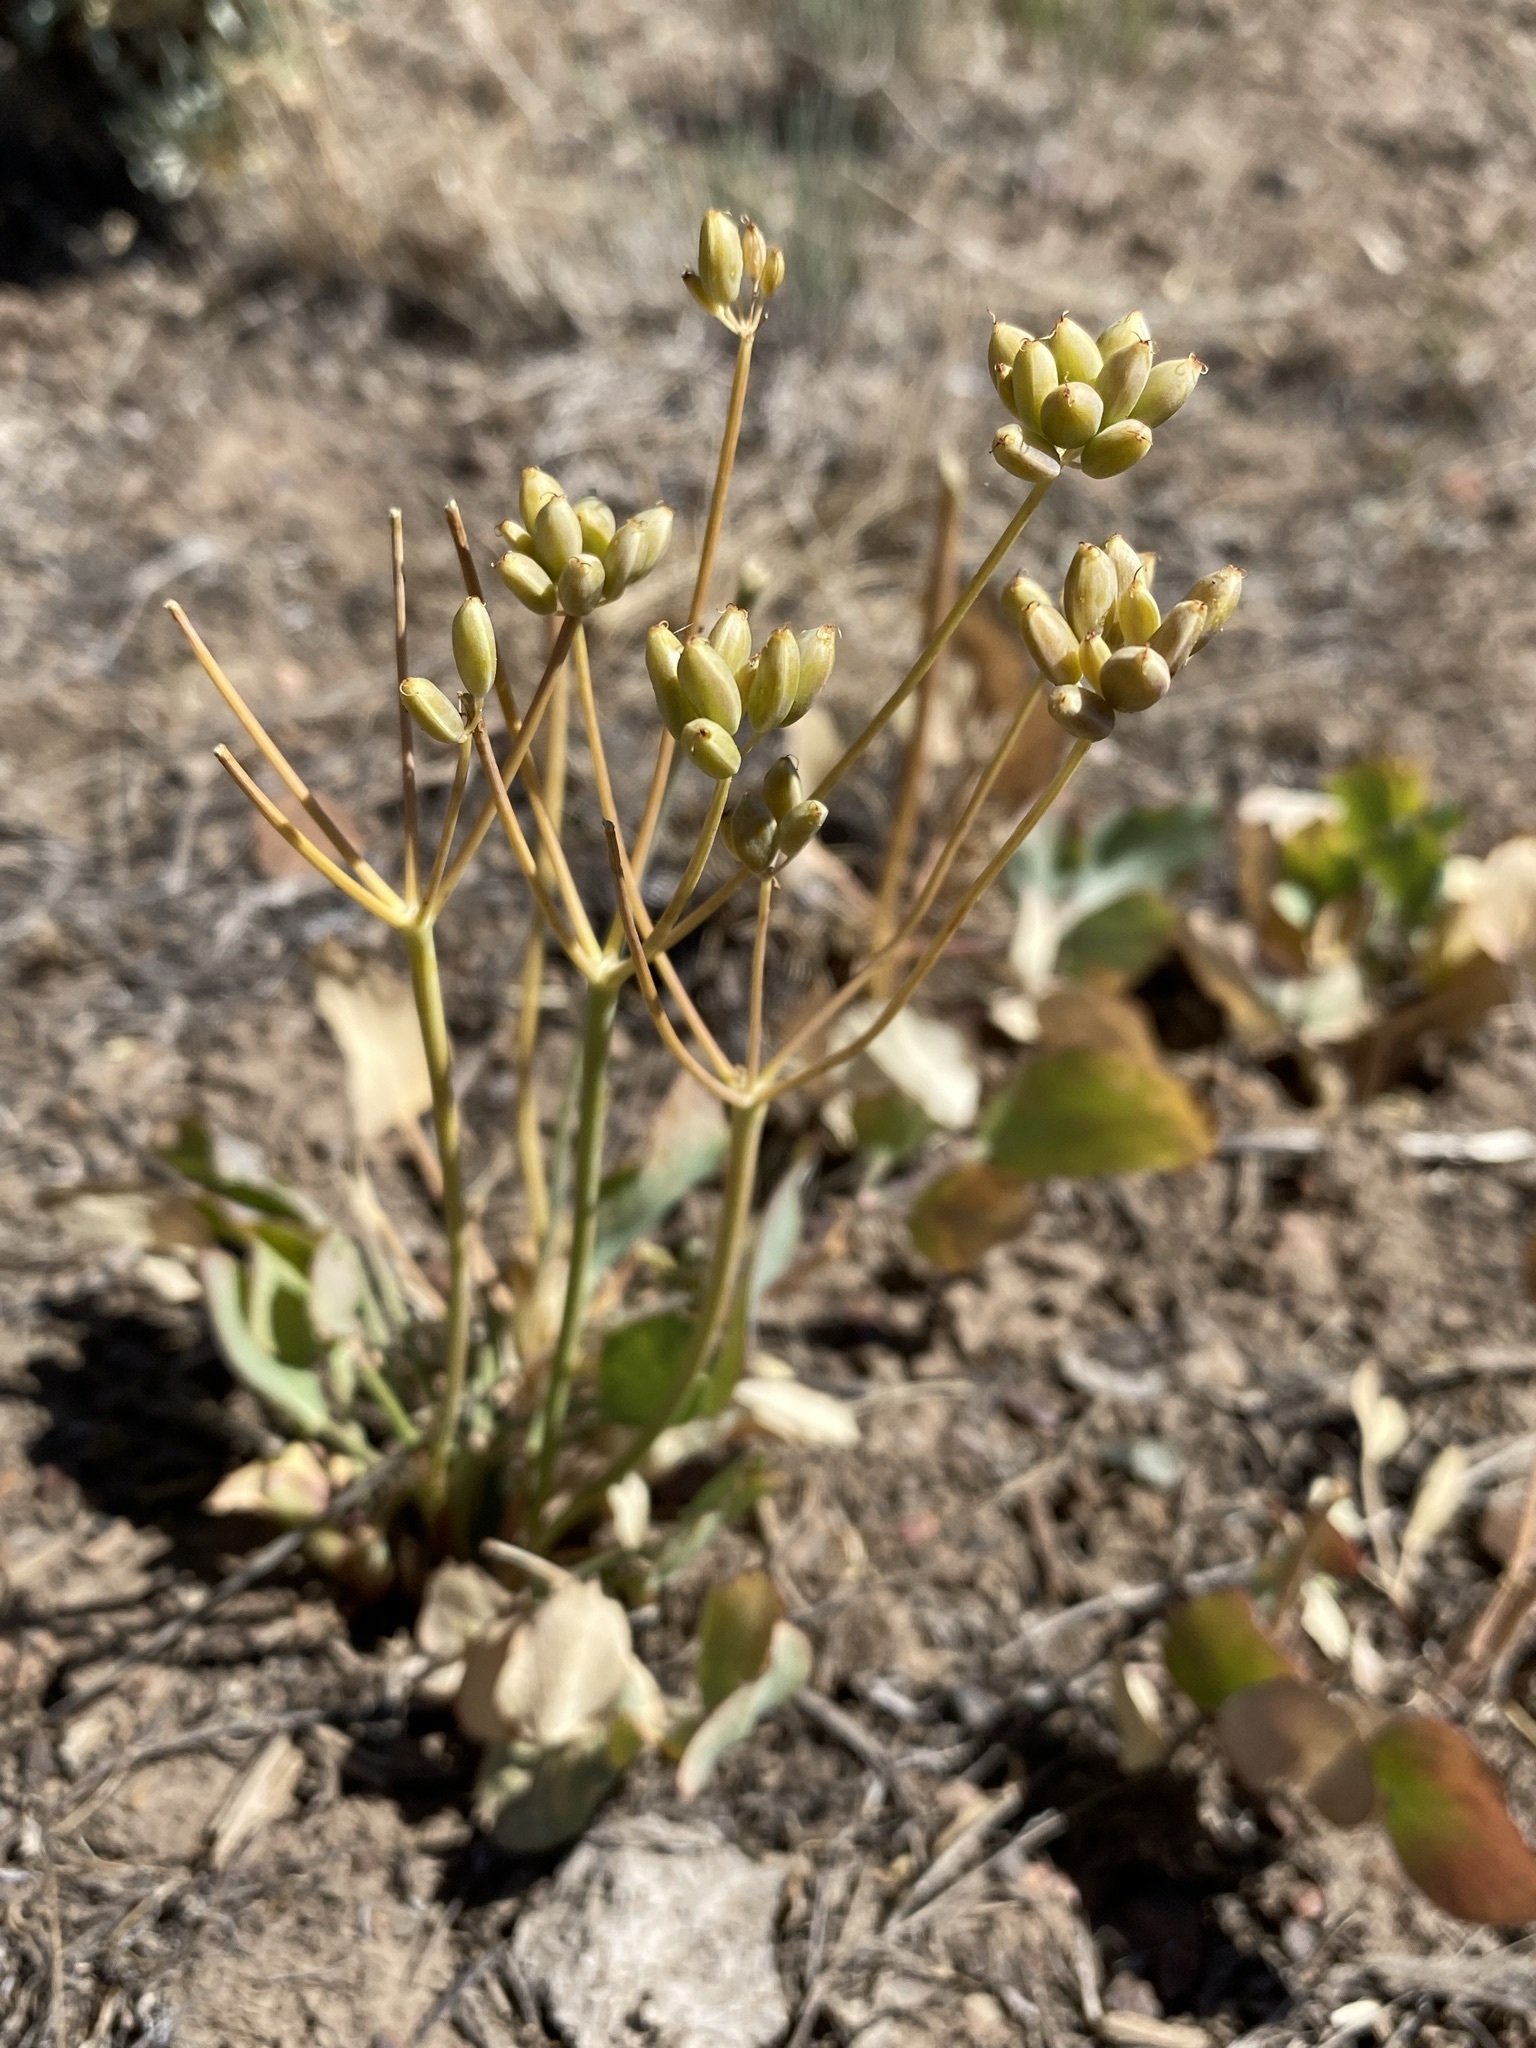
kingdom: Plantae
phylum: Tracheophyta
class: Magnoliopsida
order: Apiales
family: Apiaceae
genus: Lomatium
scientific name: Lomatium nudicaule
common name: Pestle lomatium
